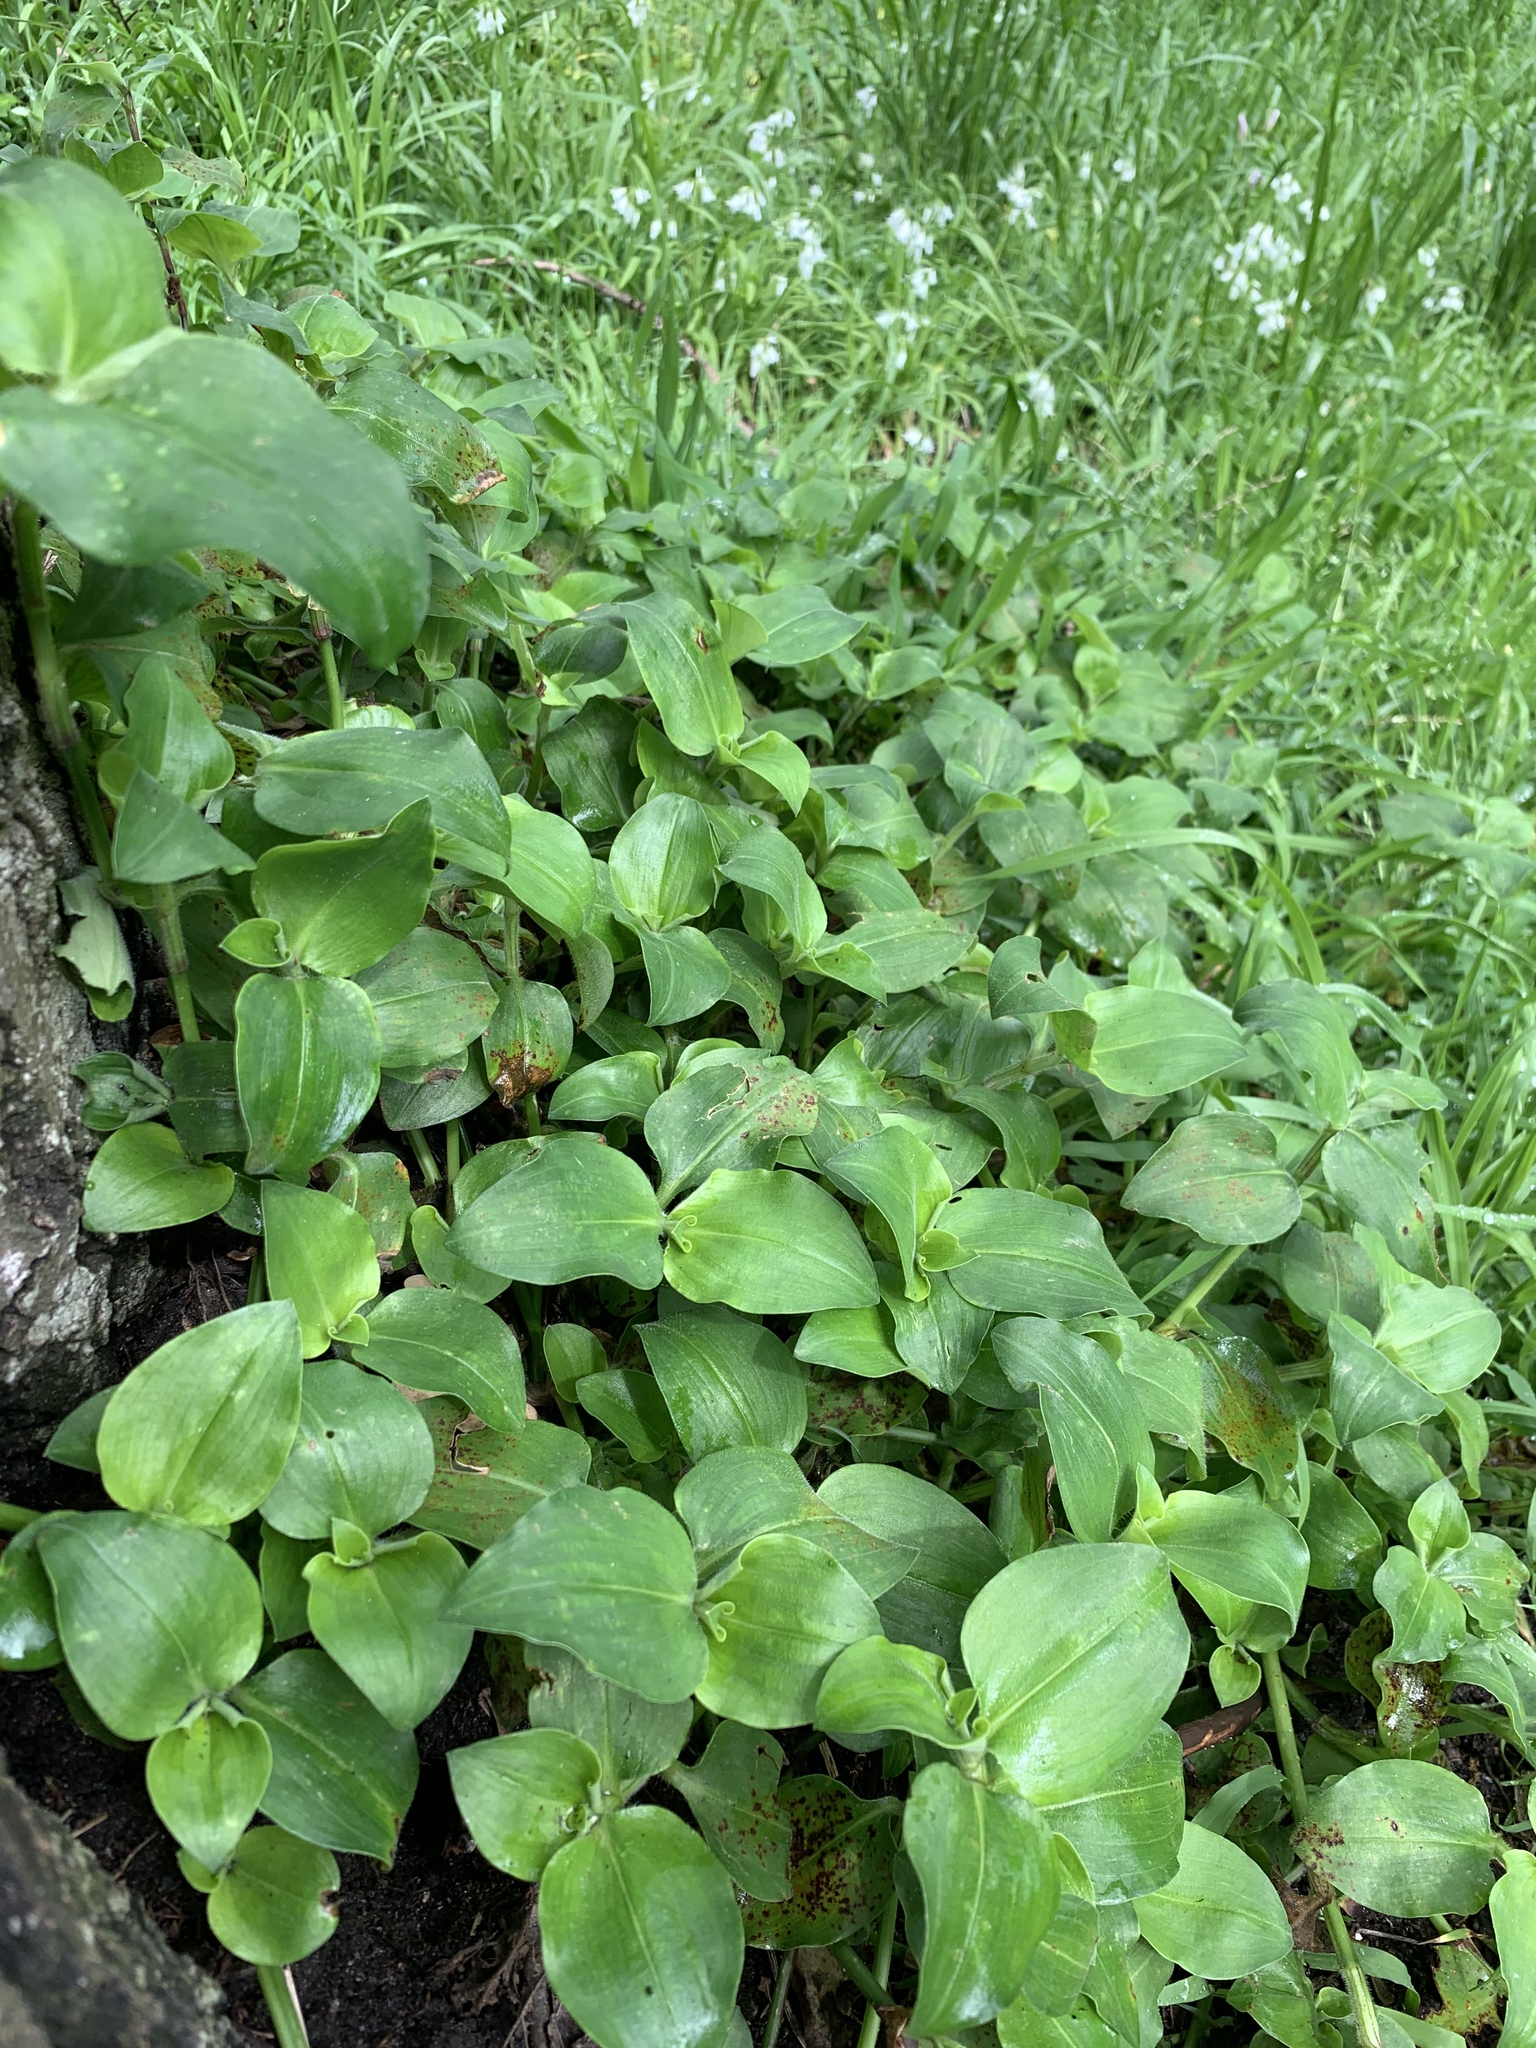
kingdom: Plantae
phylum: Tracheophyta
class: Liliopsida
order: Commelinales
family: Commelinaceae
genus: Commelina
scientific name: Commelina benghalensis
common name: Jio
